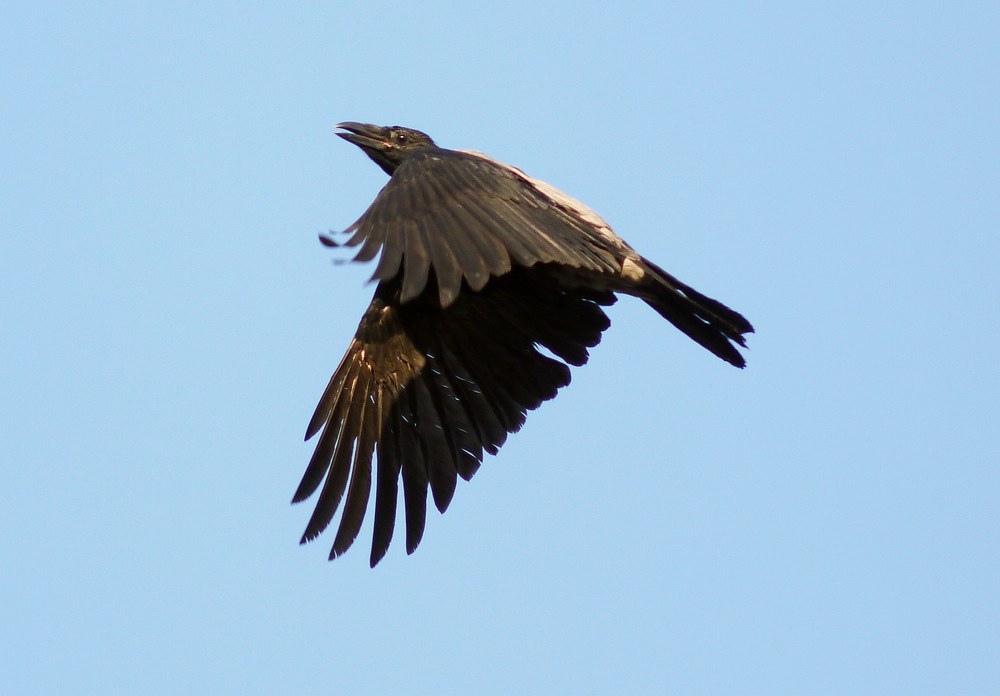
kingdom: Animalia
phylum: Chordata
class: Aves
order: Passeriformes
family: Corvidae
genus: Corvus
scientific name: Corvus cornix
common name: Hooded crow
